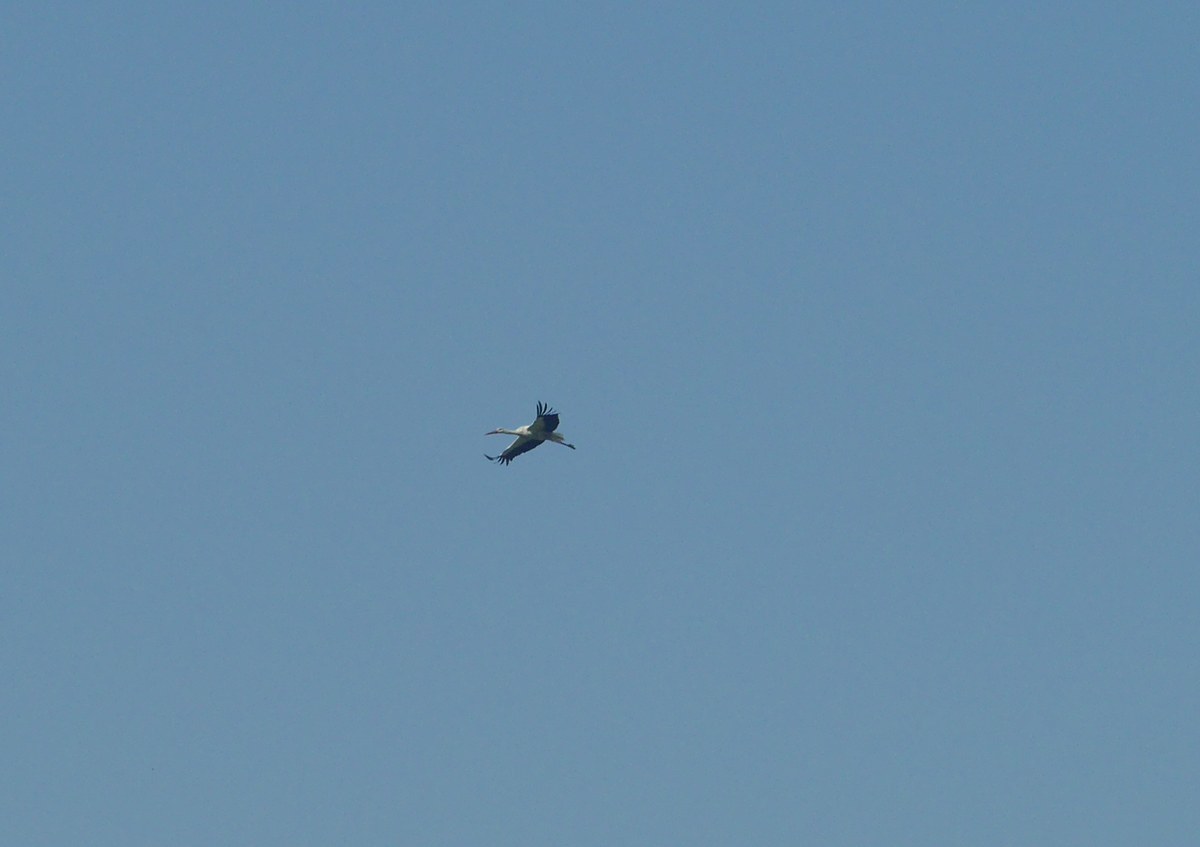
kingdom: Animalia
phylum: Chordata
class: Aves
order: Ciconiiformes
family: Ciconiidae
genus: Ciconia
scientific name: Ciconia ciconia
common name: White stork
